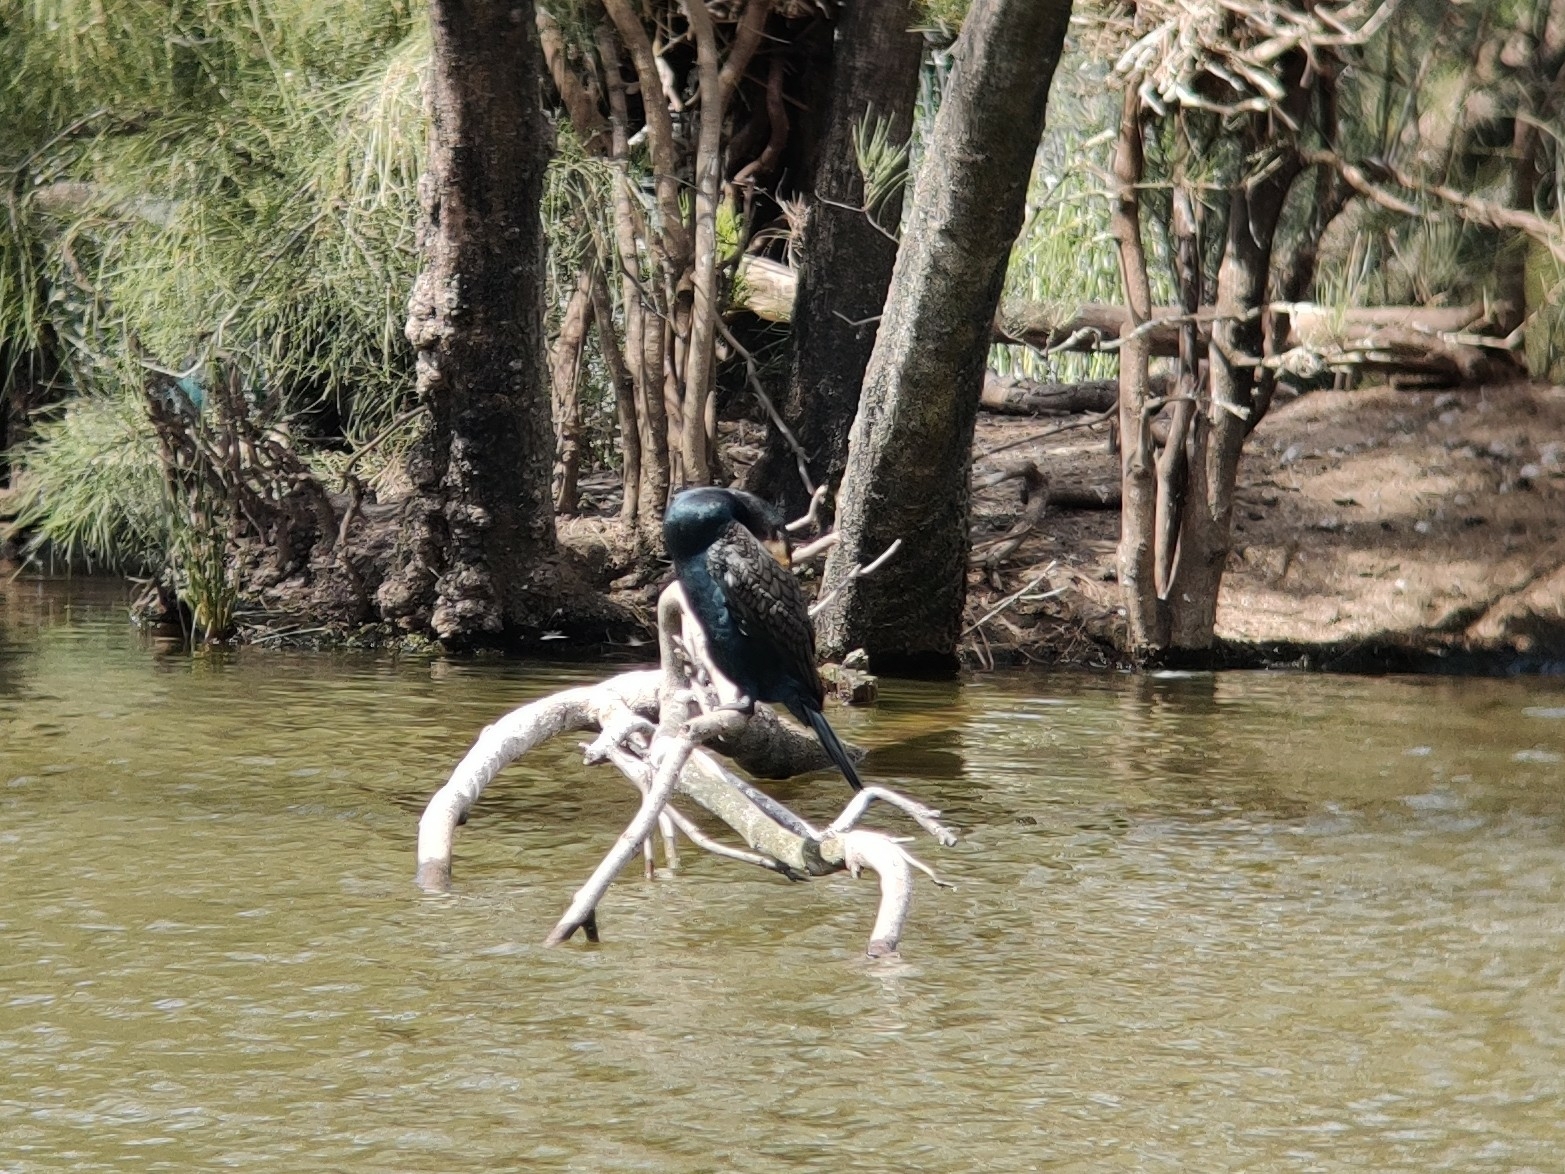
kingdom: Animalia
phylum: Chordata
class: Aves
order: Suliformes
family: Phalacrocoracidae
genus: Phalacrocorax
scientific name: Phalacrocorax carbo
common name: Great cormorant
